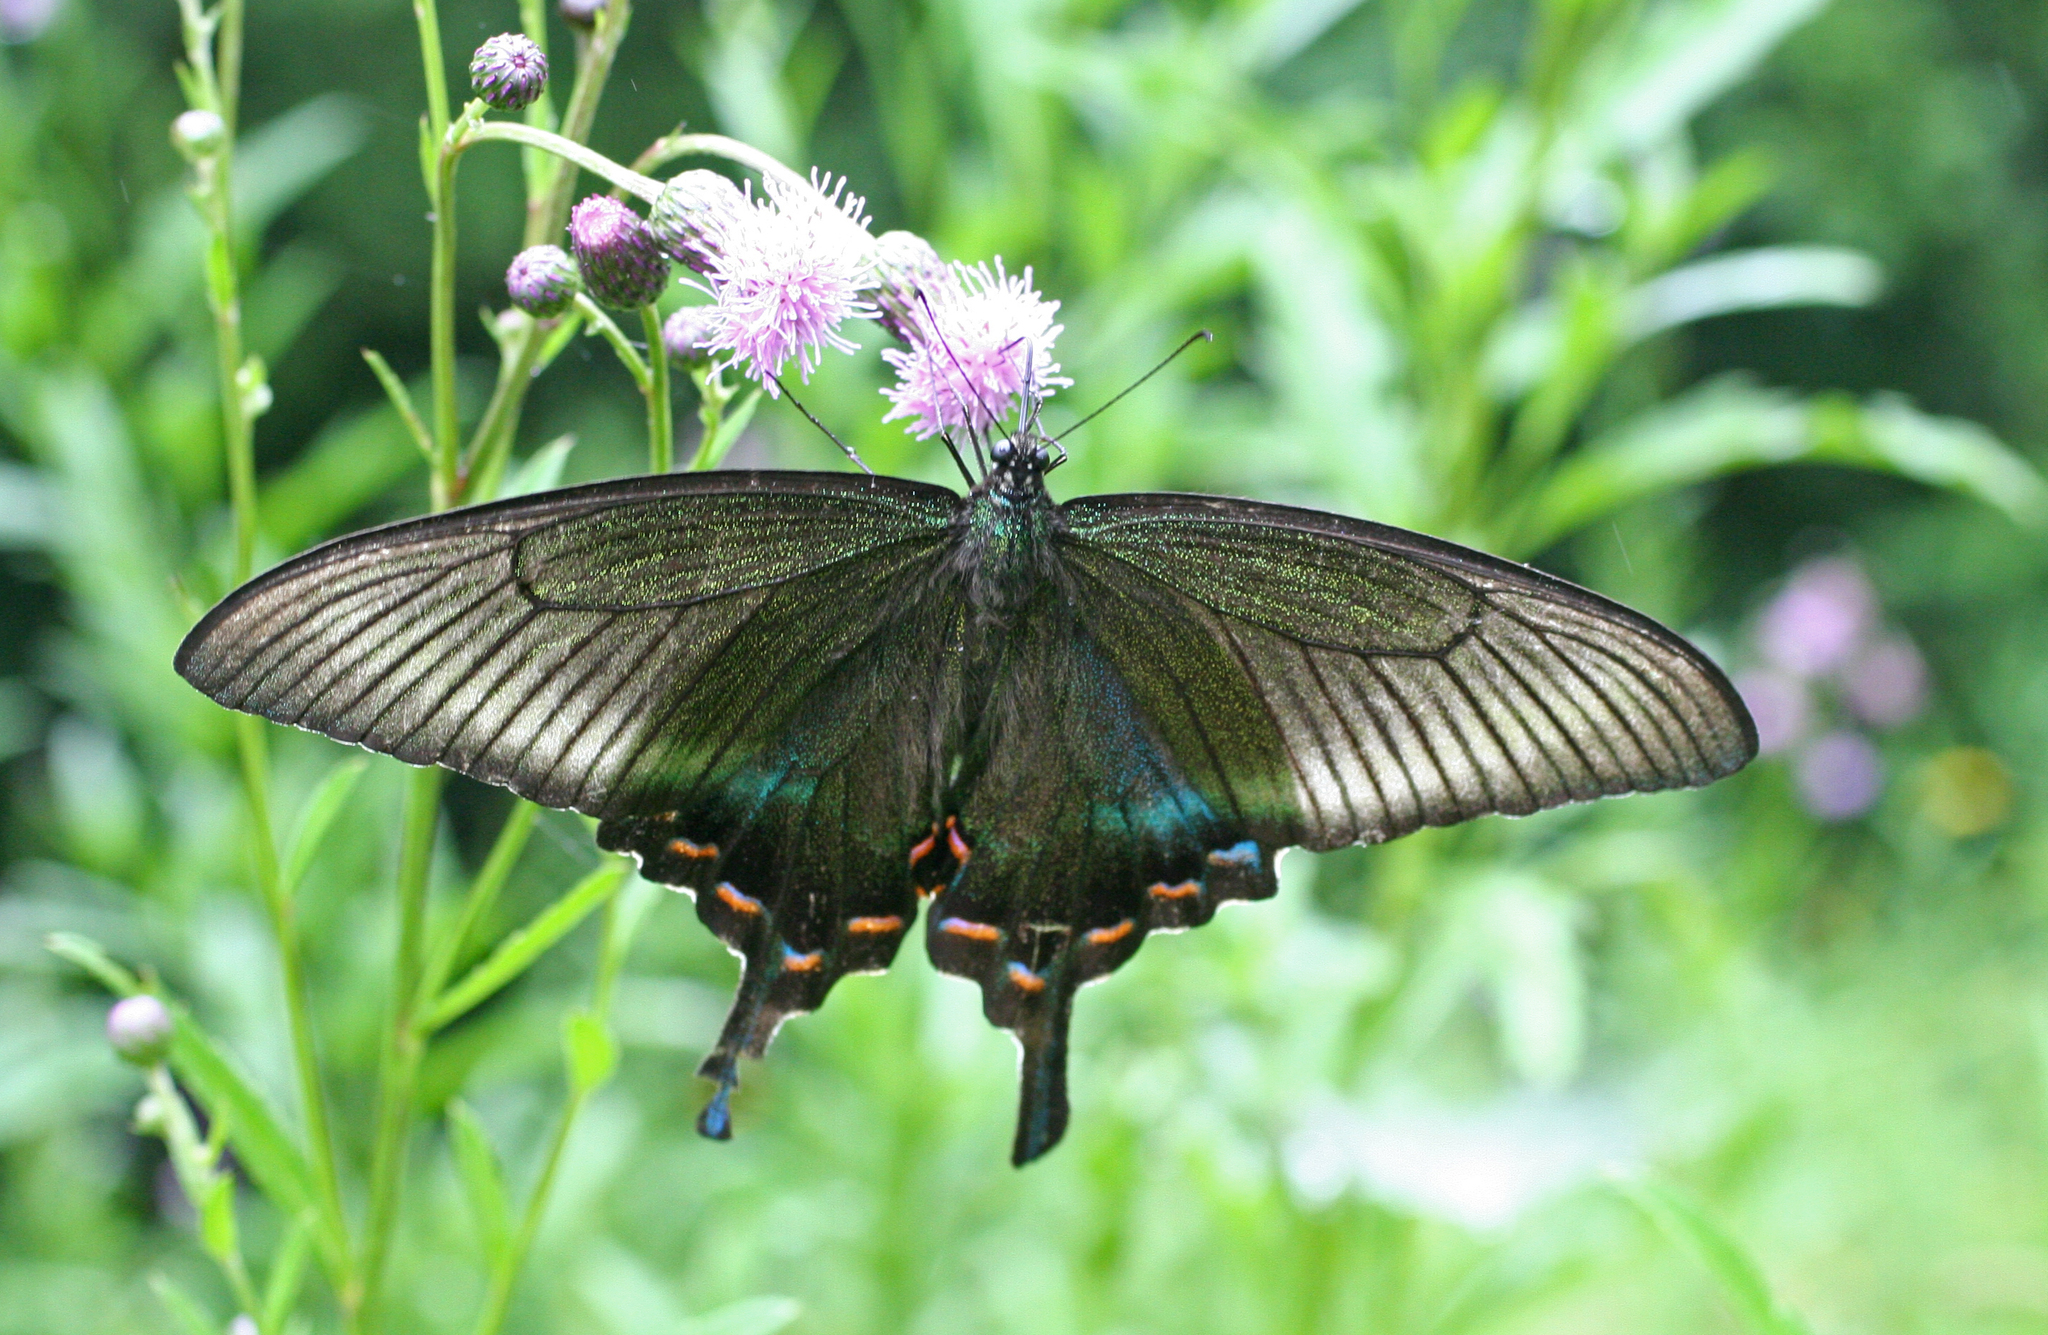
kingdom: Animalia
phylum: Arthropoda
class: Insecta
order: Lepidoptera
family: Papilionidae
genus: Papilio
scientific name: Papilio maackii
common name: Alpine black swallowtail
